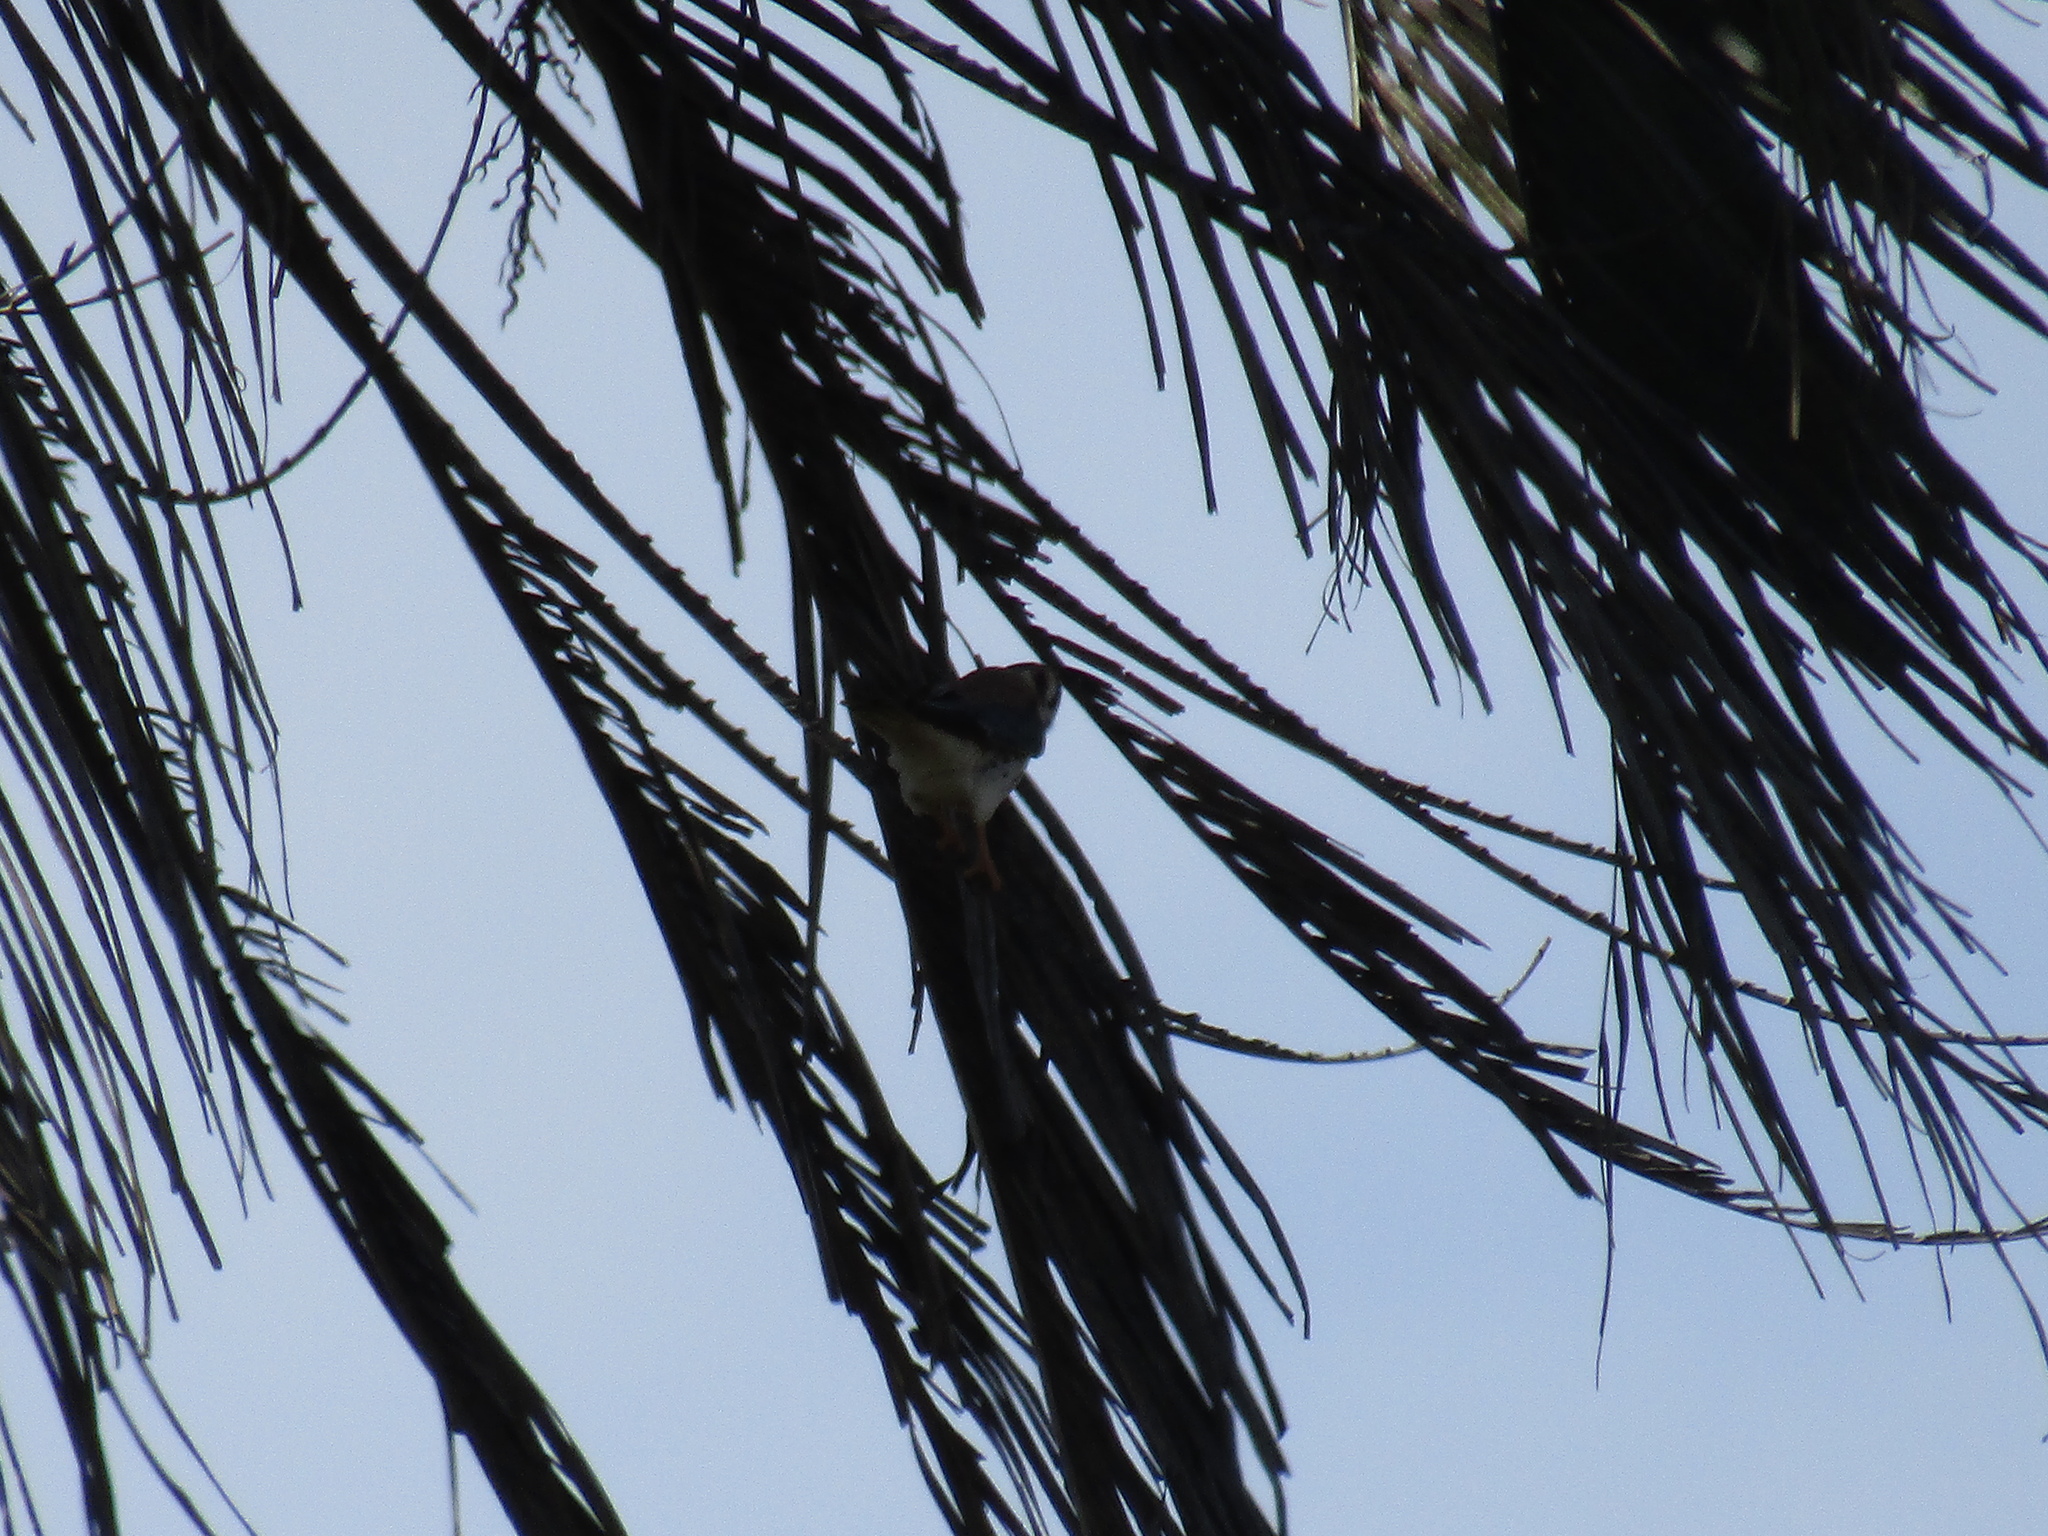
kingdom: Animalia
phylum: Chordata
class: Aves
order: Falconiformes
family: Falconidae
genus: Falco
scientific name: Falco sparverius
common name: American kestrel
